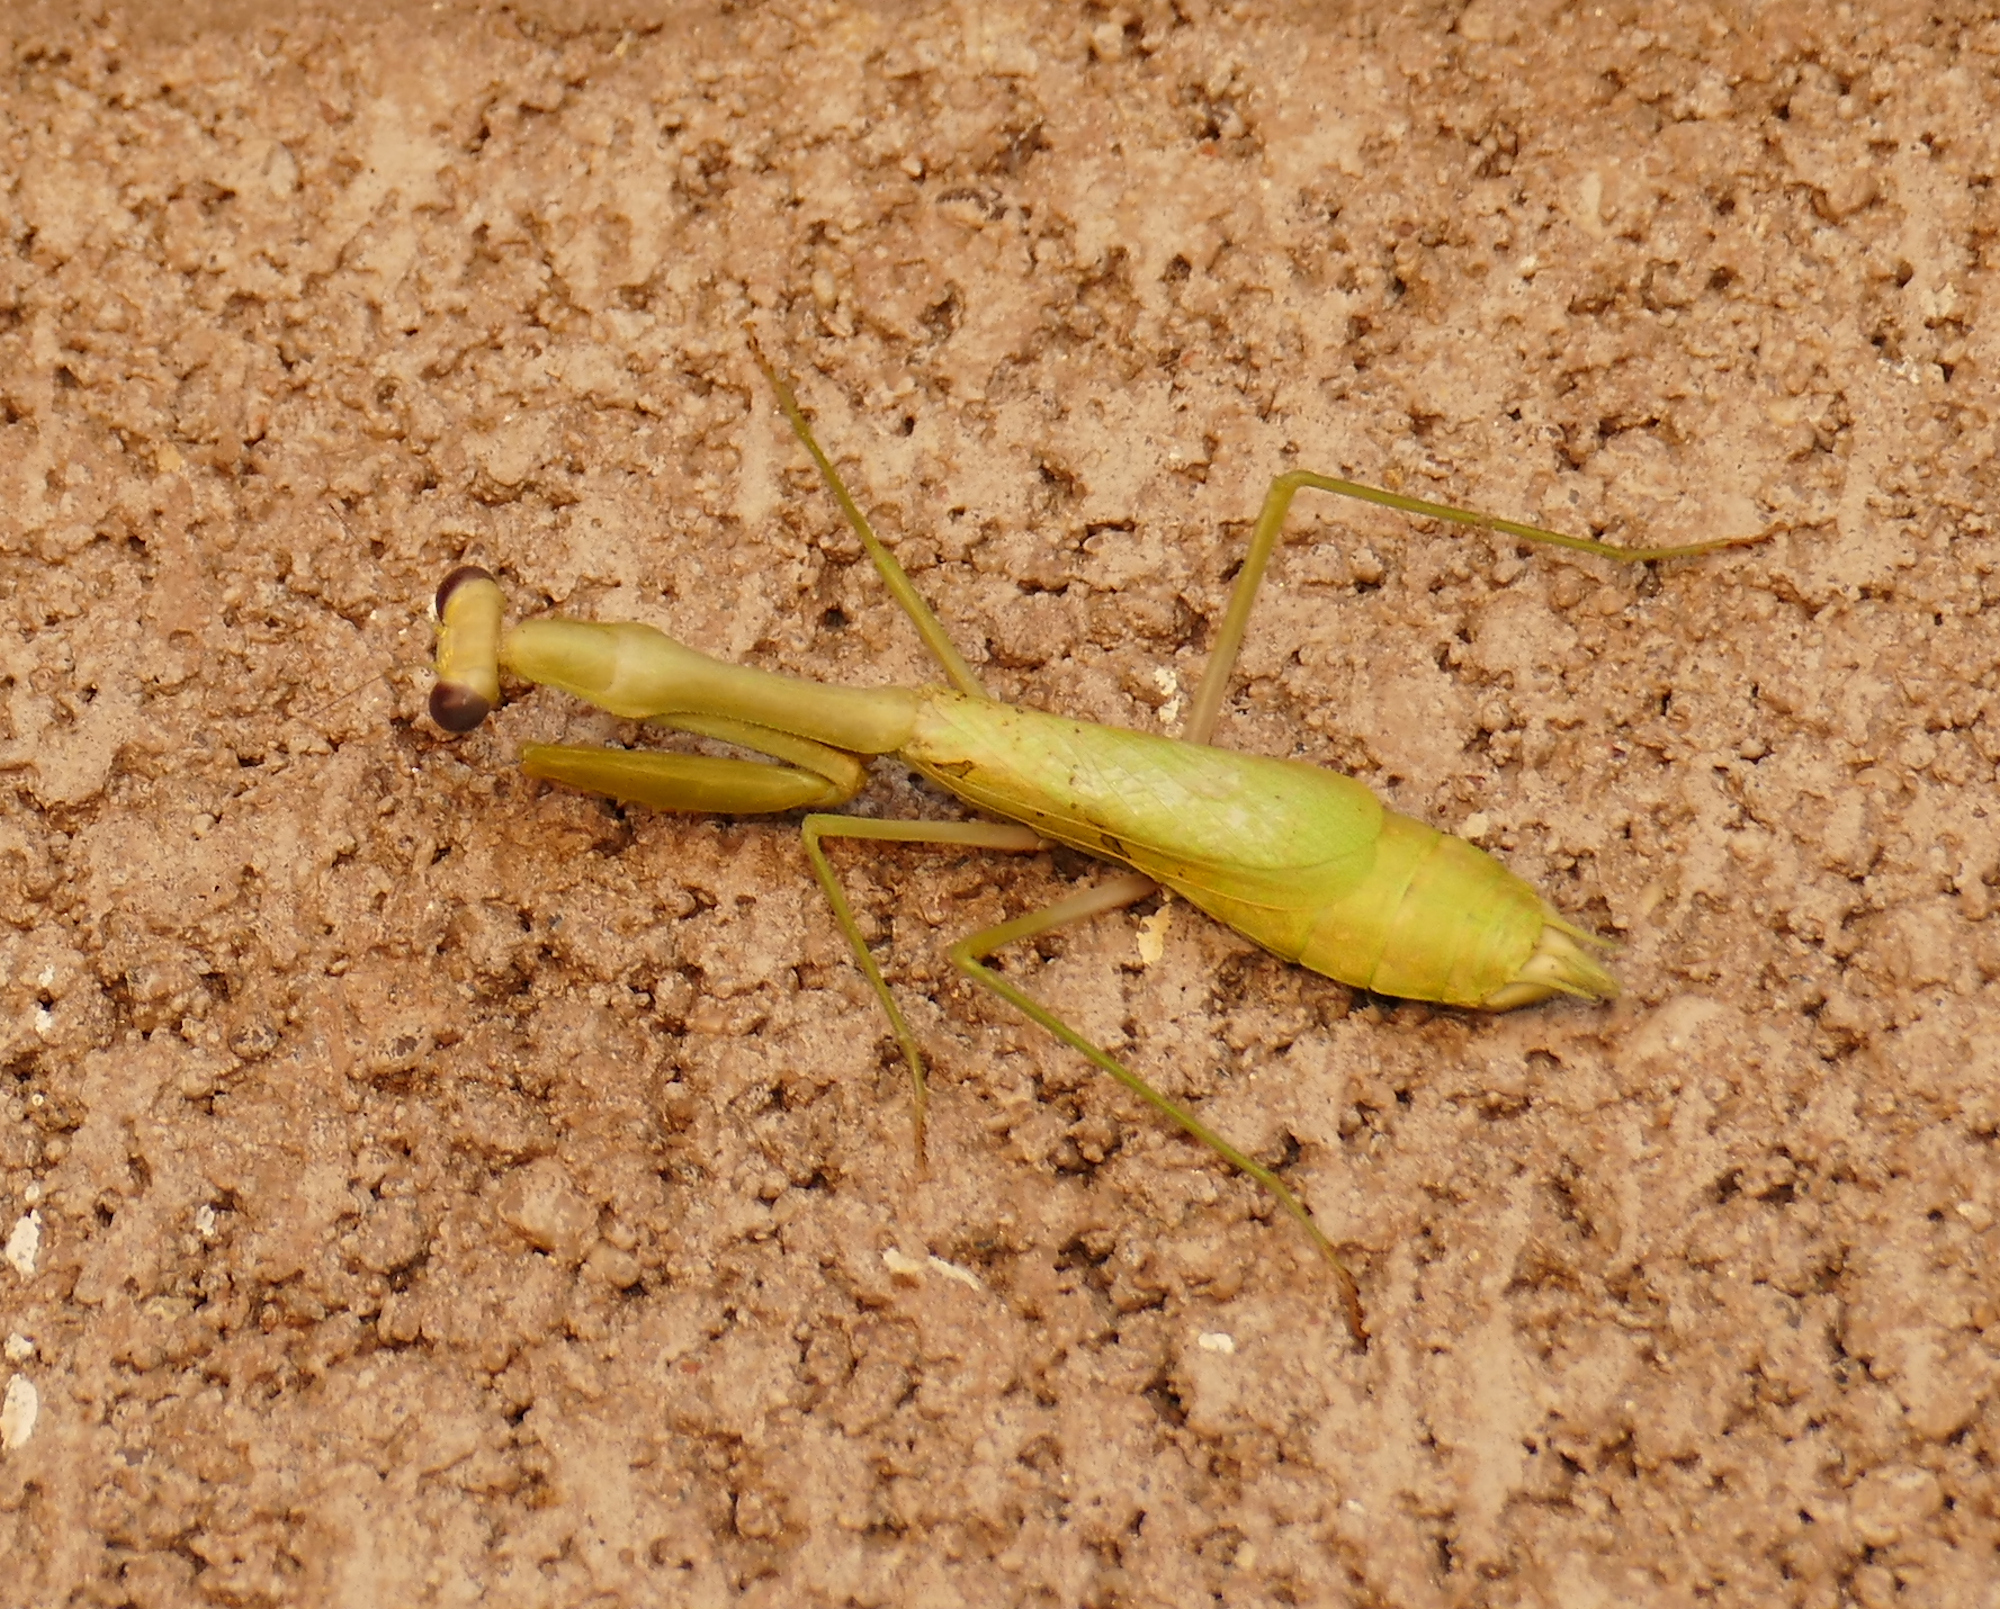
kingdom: Animalia
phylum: Arthropoda
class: Insecta
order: Mantodea
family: Mantidae
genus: Stagmomantis
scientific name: Stagmomantis californica
